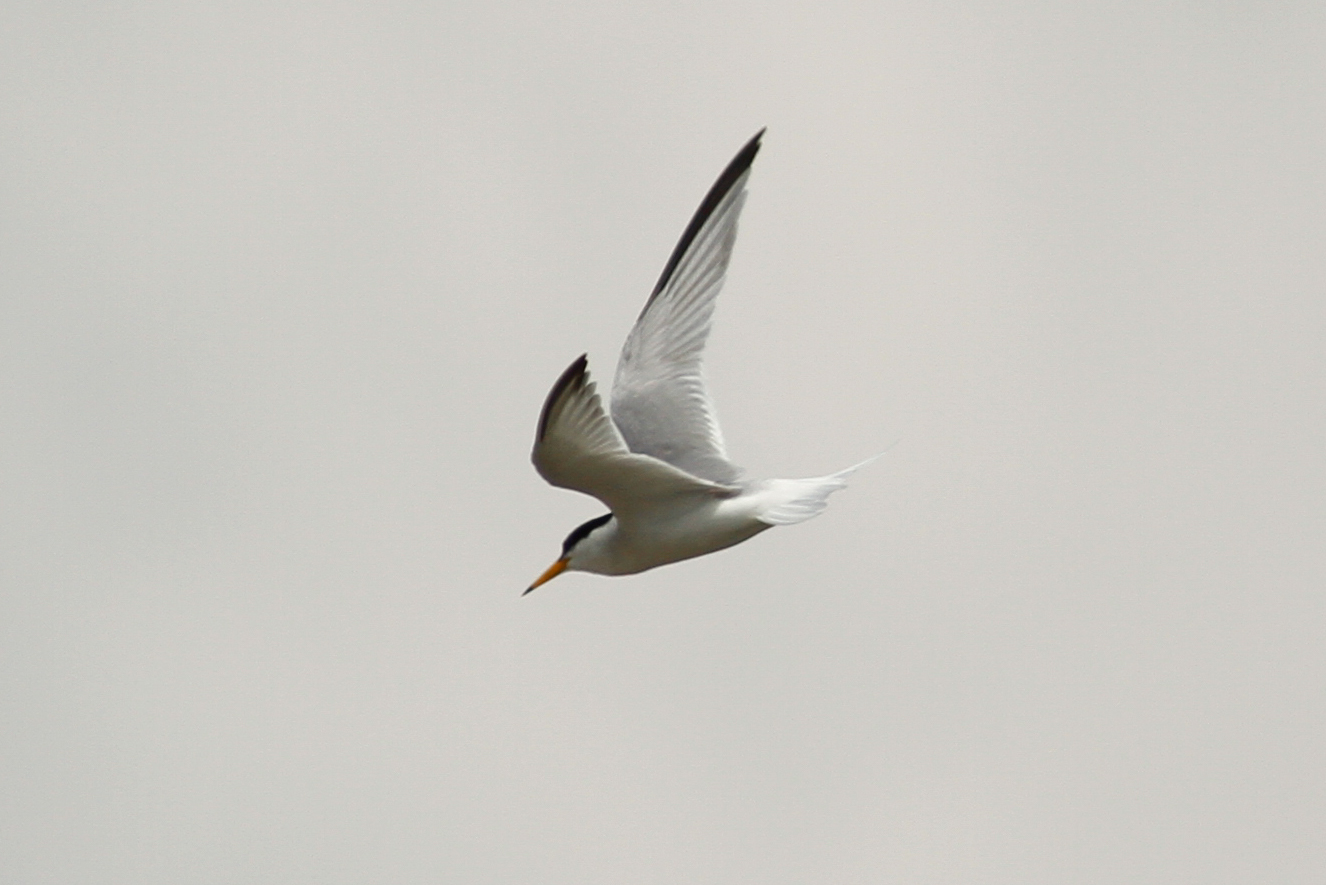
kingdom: Animalia
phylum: Chordata
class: Aves
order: Charadriiformes
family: Laridae
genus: Sternula
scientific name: Sternula albifrons
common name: Little tern
